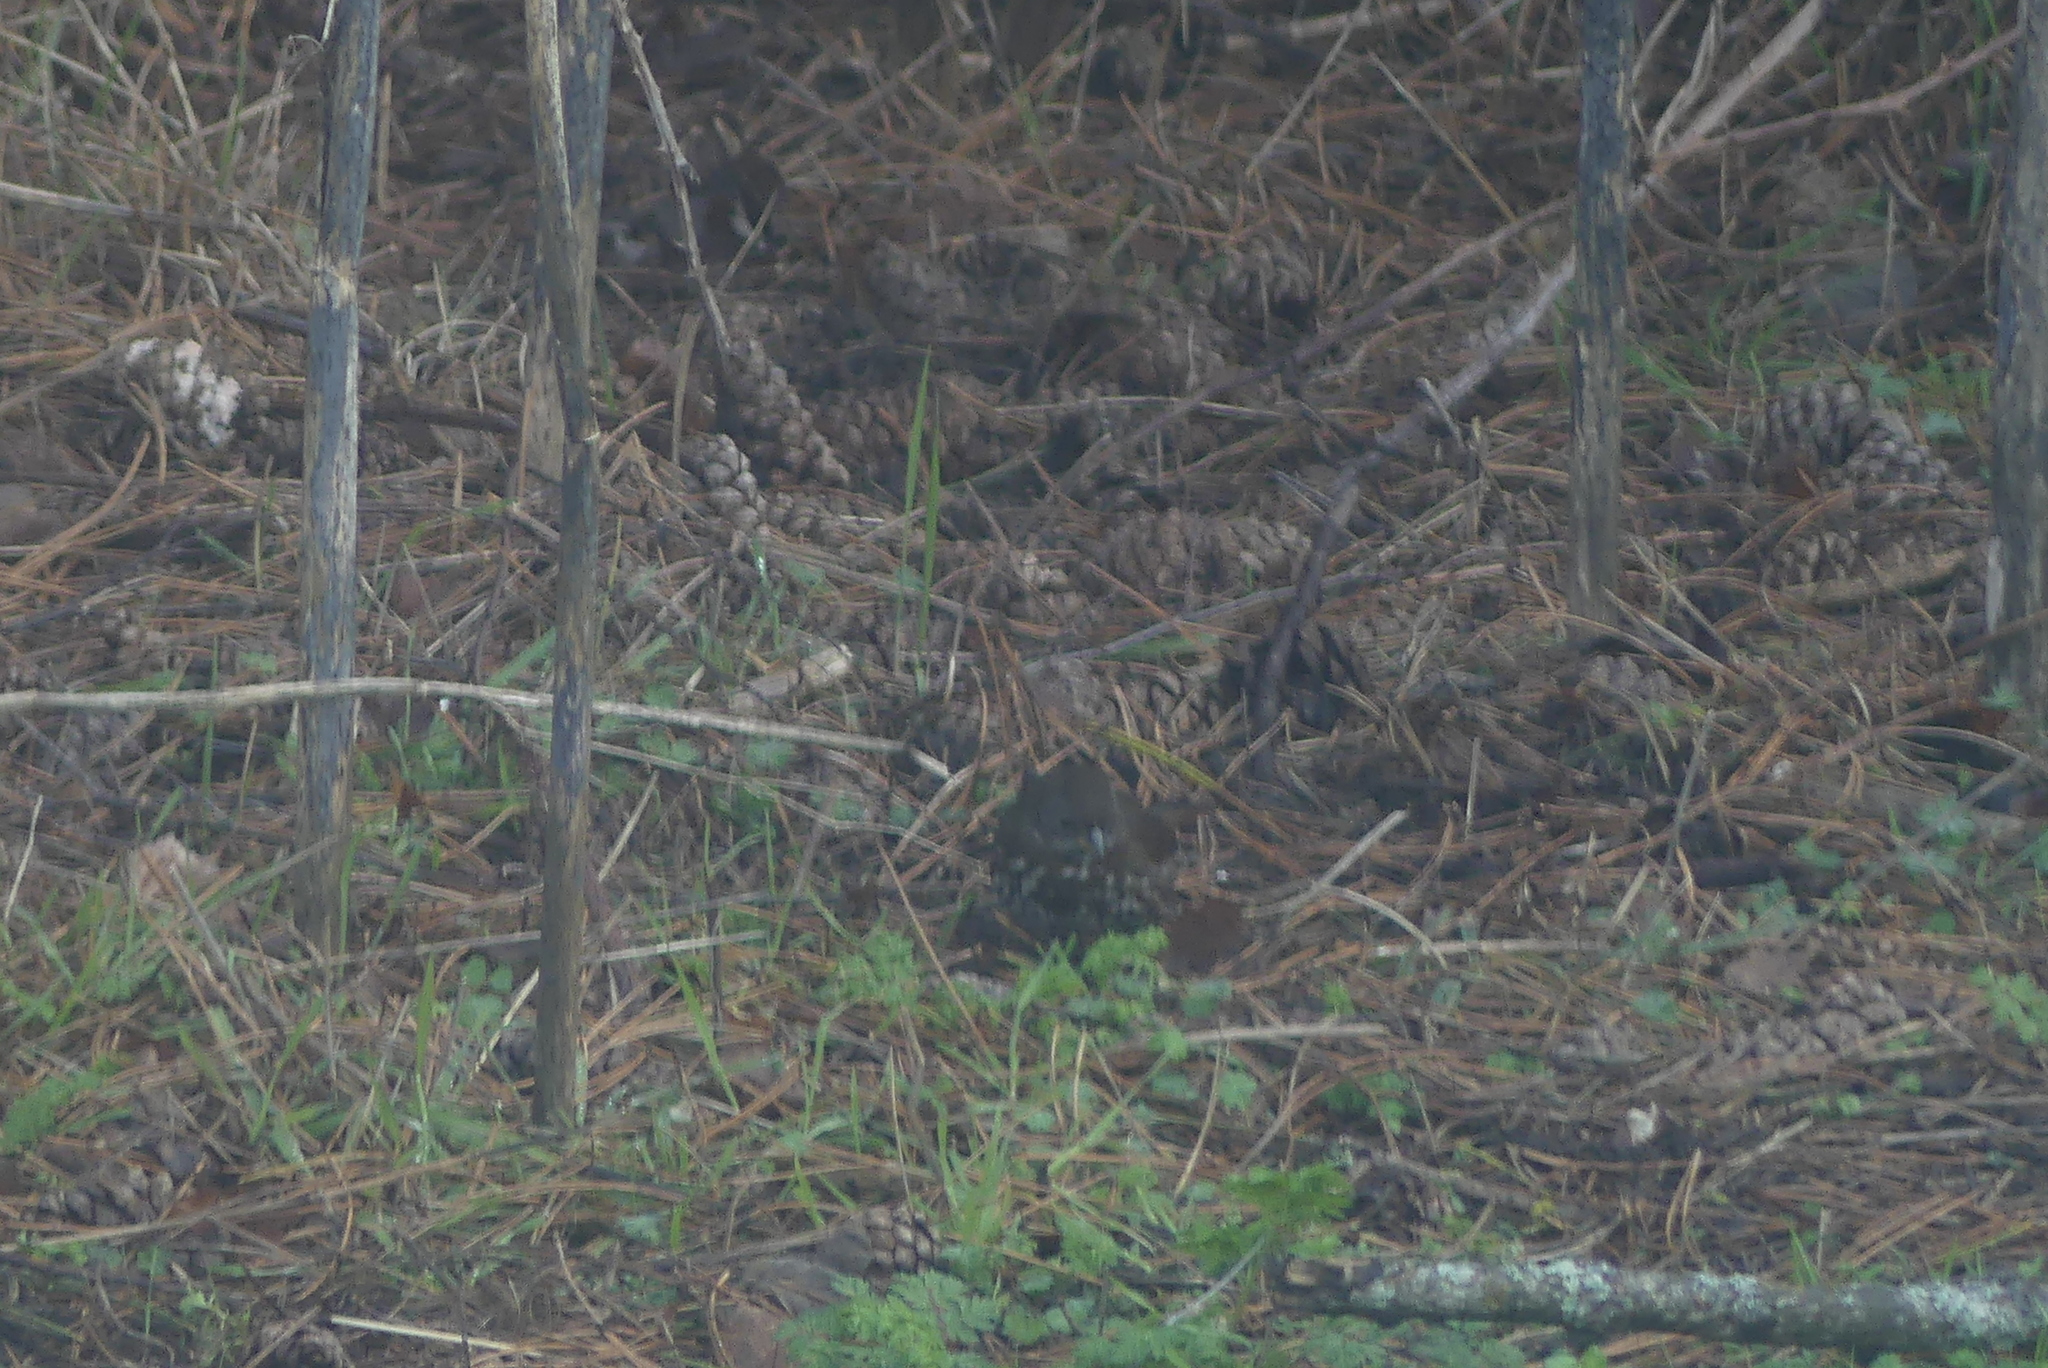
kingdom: Animalia
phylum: Chordata
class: Aves
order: Passeriformes
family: Passerellidae
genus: Passerella
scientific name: Passerella iliaca
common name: Fox sparrow
